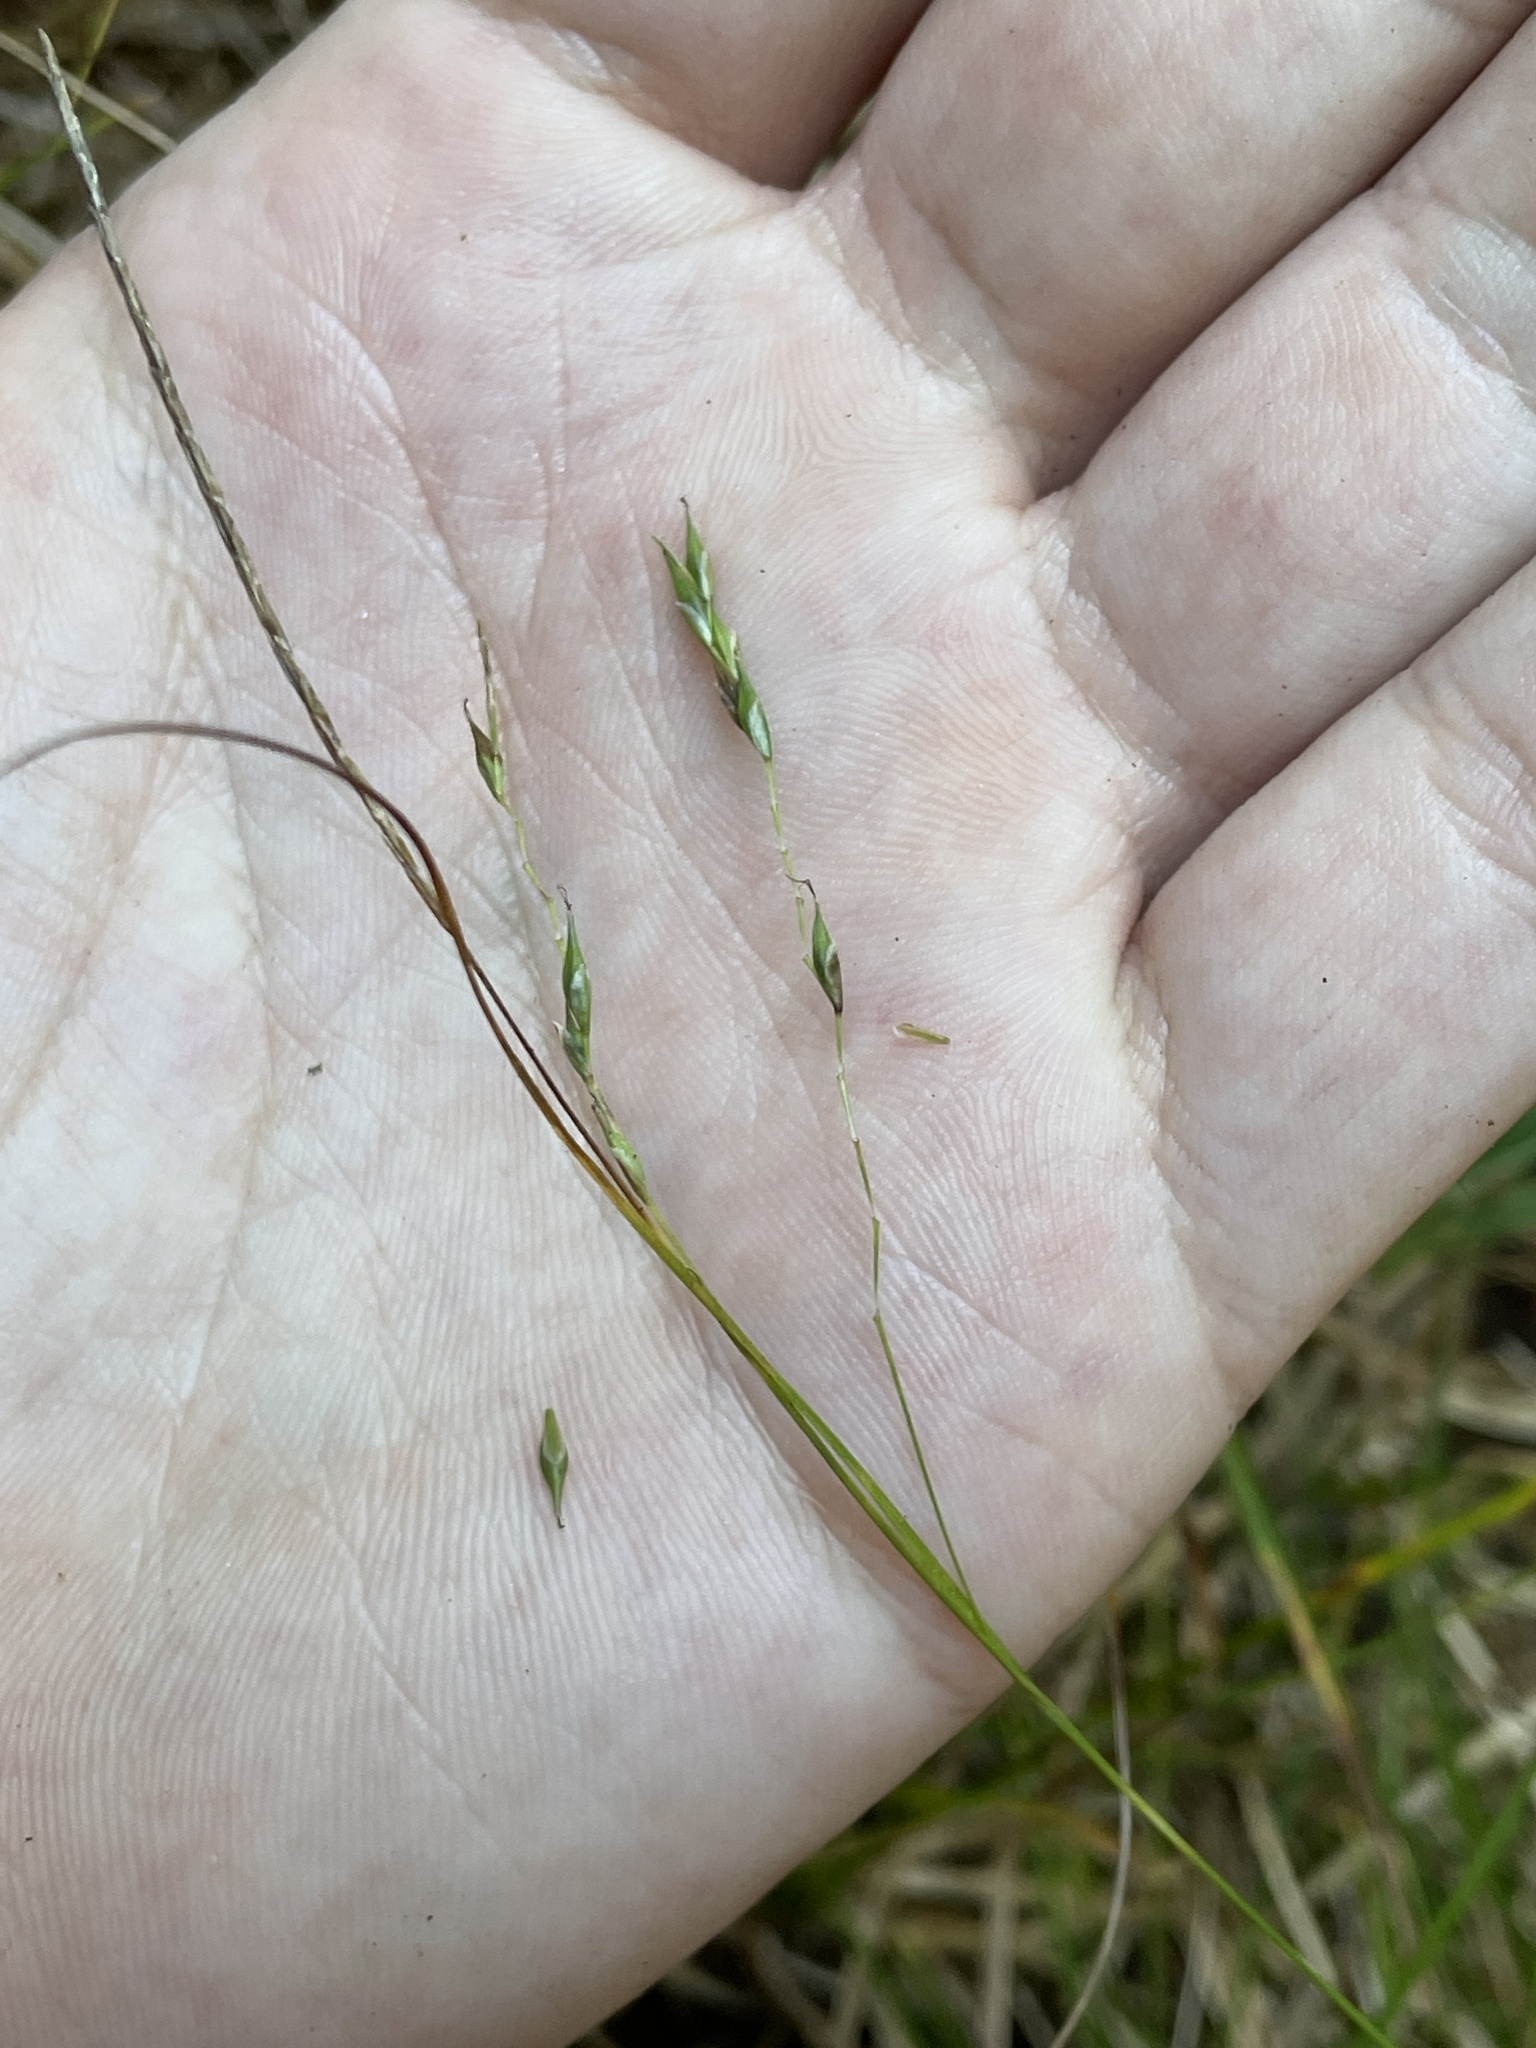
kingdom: Plantae
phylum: Tracheophyta
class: Liliopsida
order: Poales
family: Cyperaceae
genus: Carex
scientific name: Carex debilis
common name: White-edge sedge
